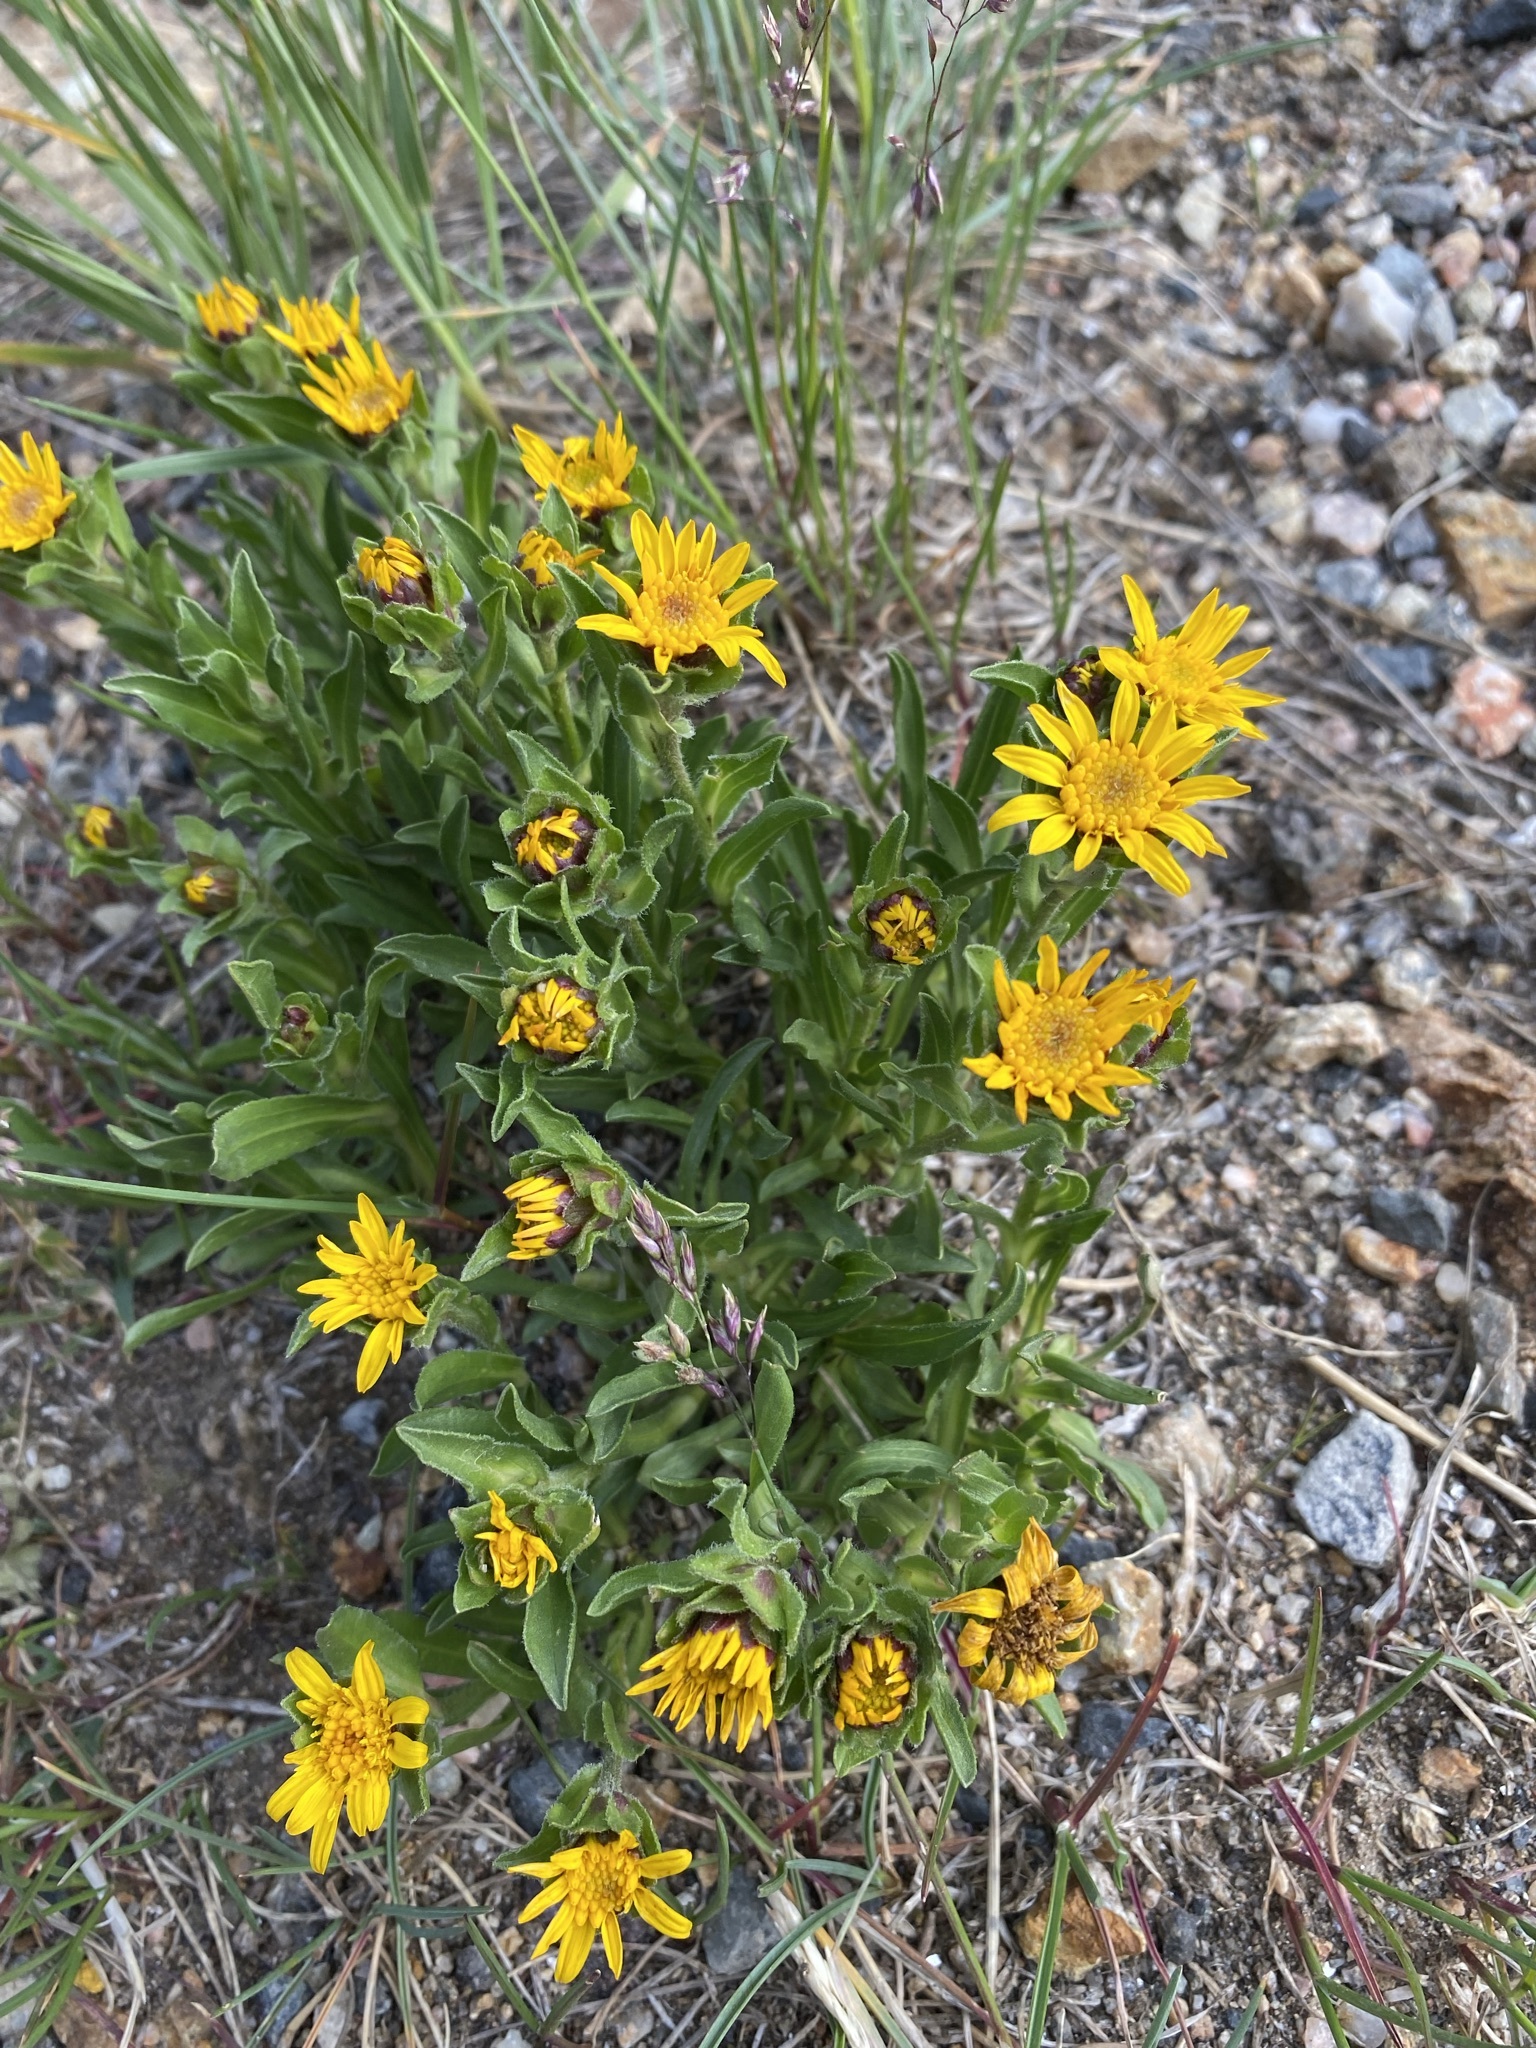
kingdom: Plantae
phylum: Tracheophyta
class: Magnoliopsida
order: Asterales
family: Asteraceae
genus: Tonestus
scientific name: Tonestus pygmaeus
